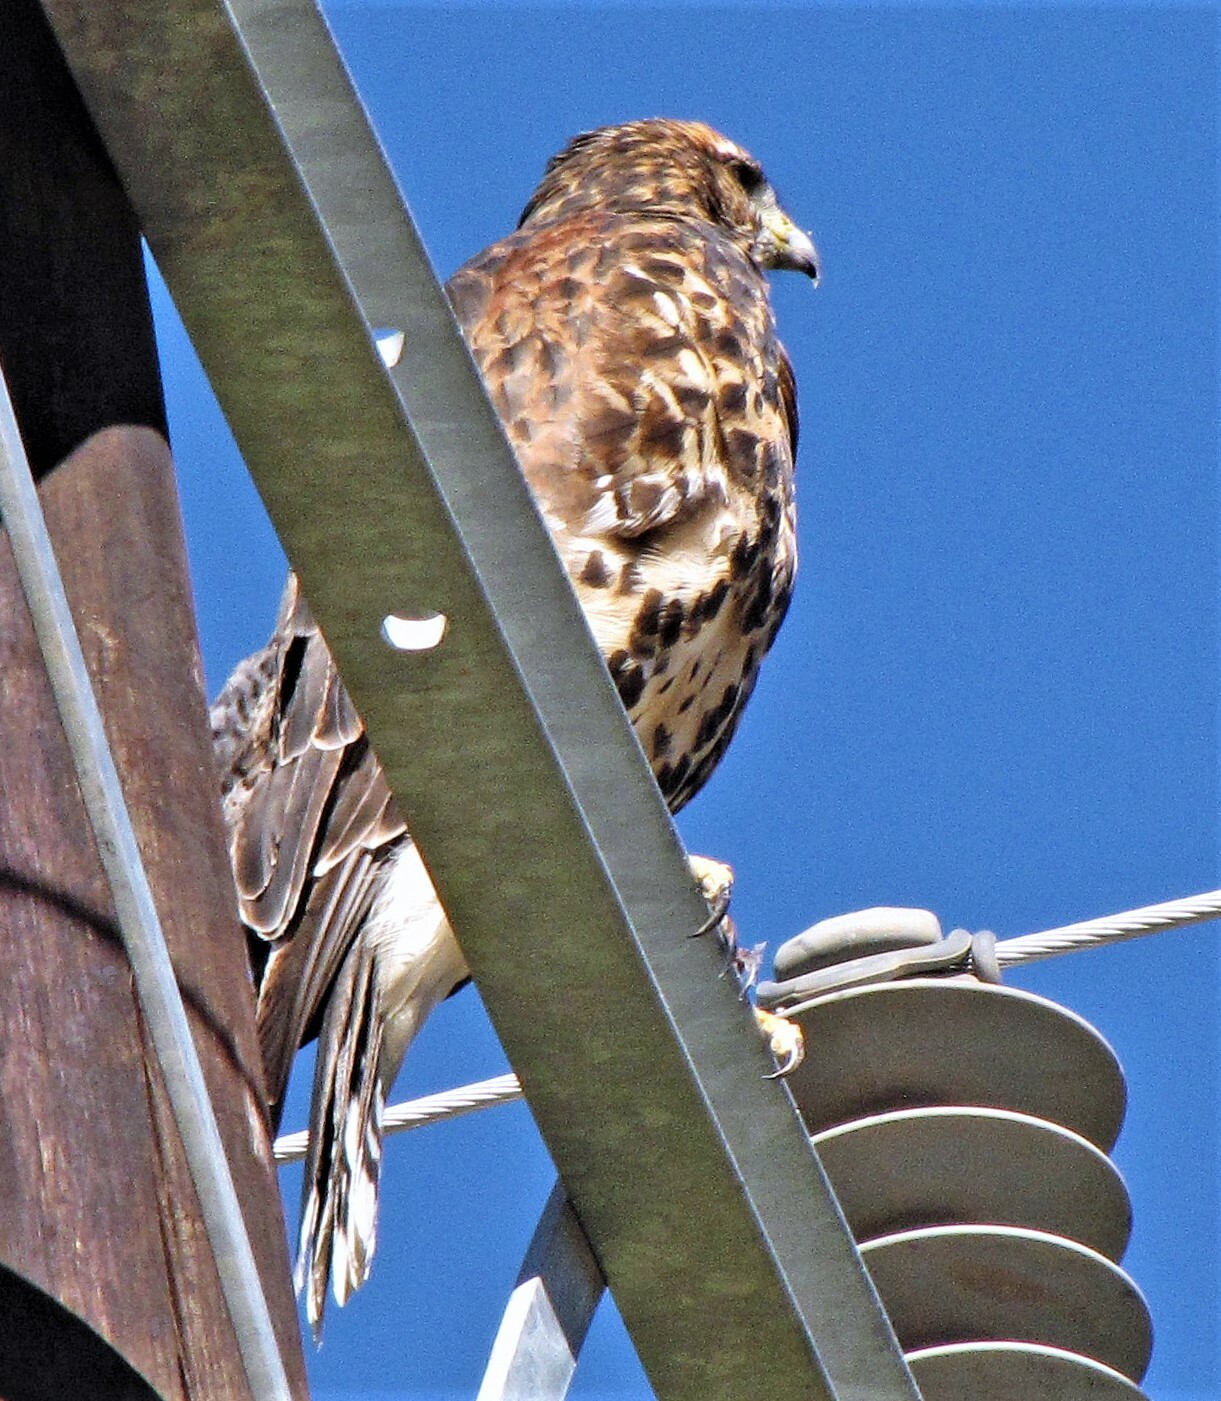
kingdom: Animalia
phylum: Chordata
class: Aves
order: Accipitriformes
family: Accipitridae
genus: Parabuteo
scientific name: Parabuteo unicinctus
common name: Harris's hawk
